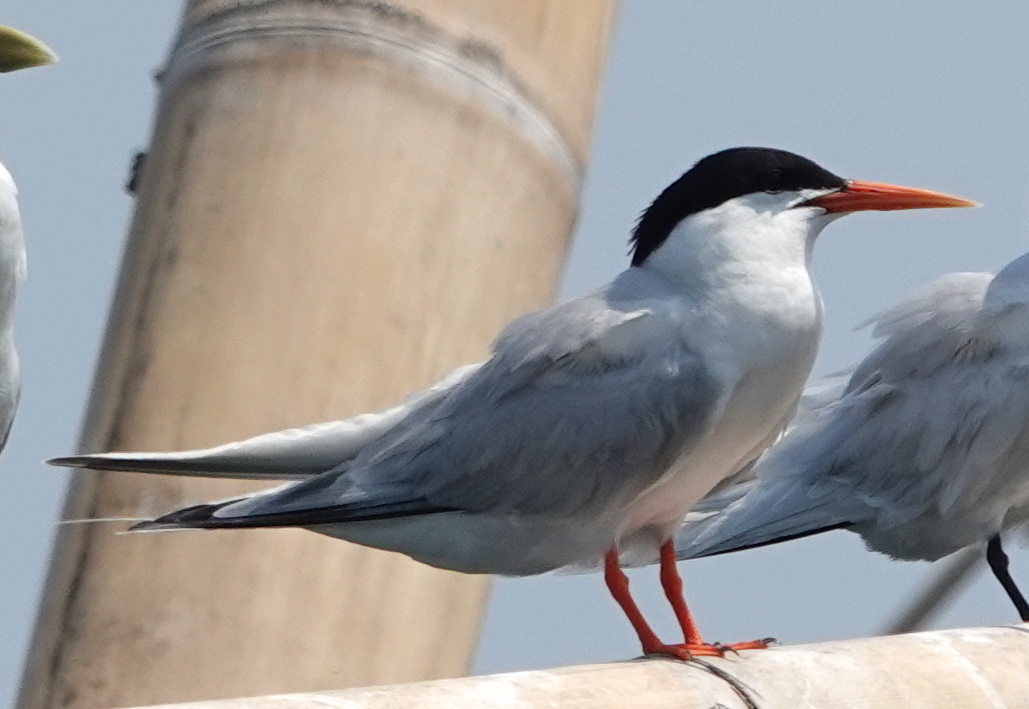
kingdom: Animalia
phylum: Chordata
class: Aves
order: Charadriiformes
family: Laridae
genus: Sterna
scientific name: Sterna dougallii
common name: Roseate tern
